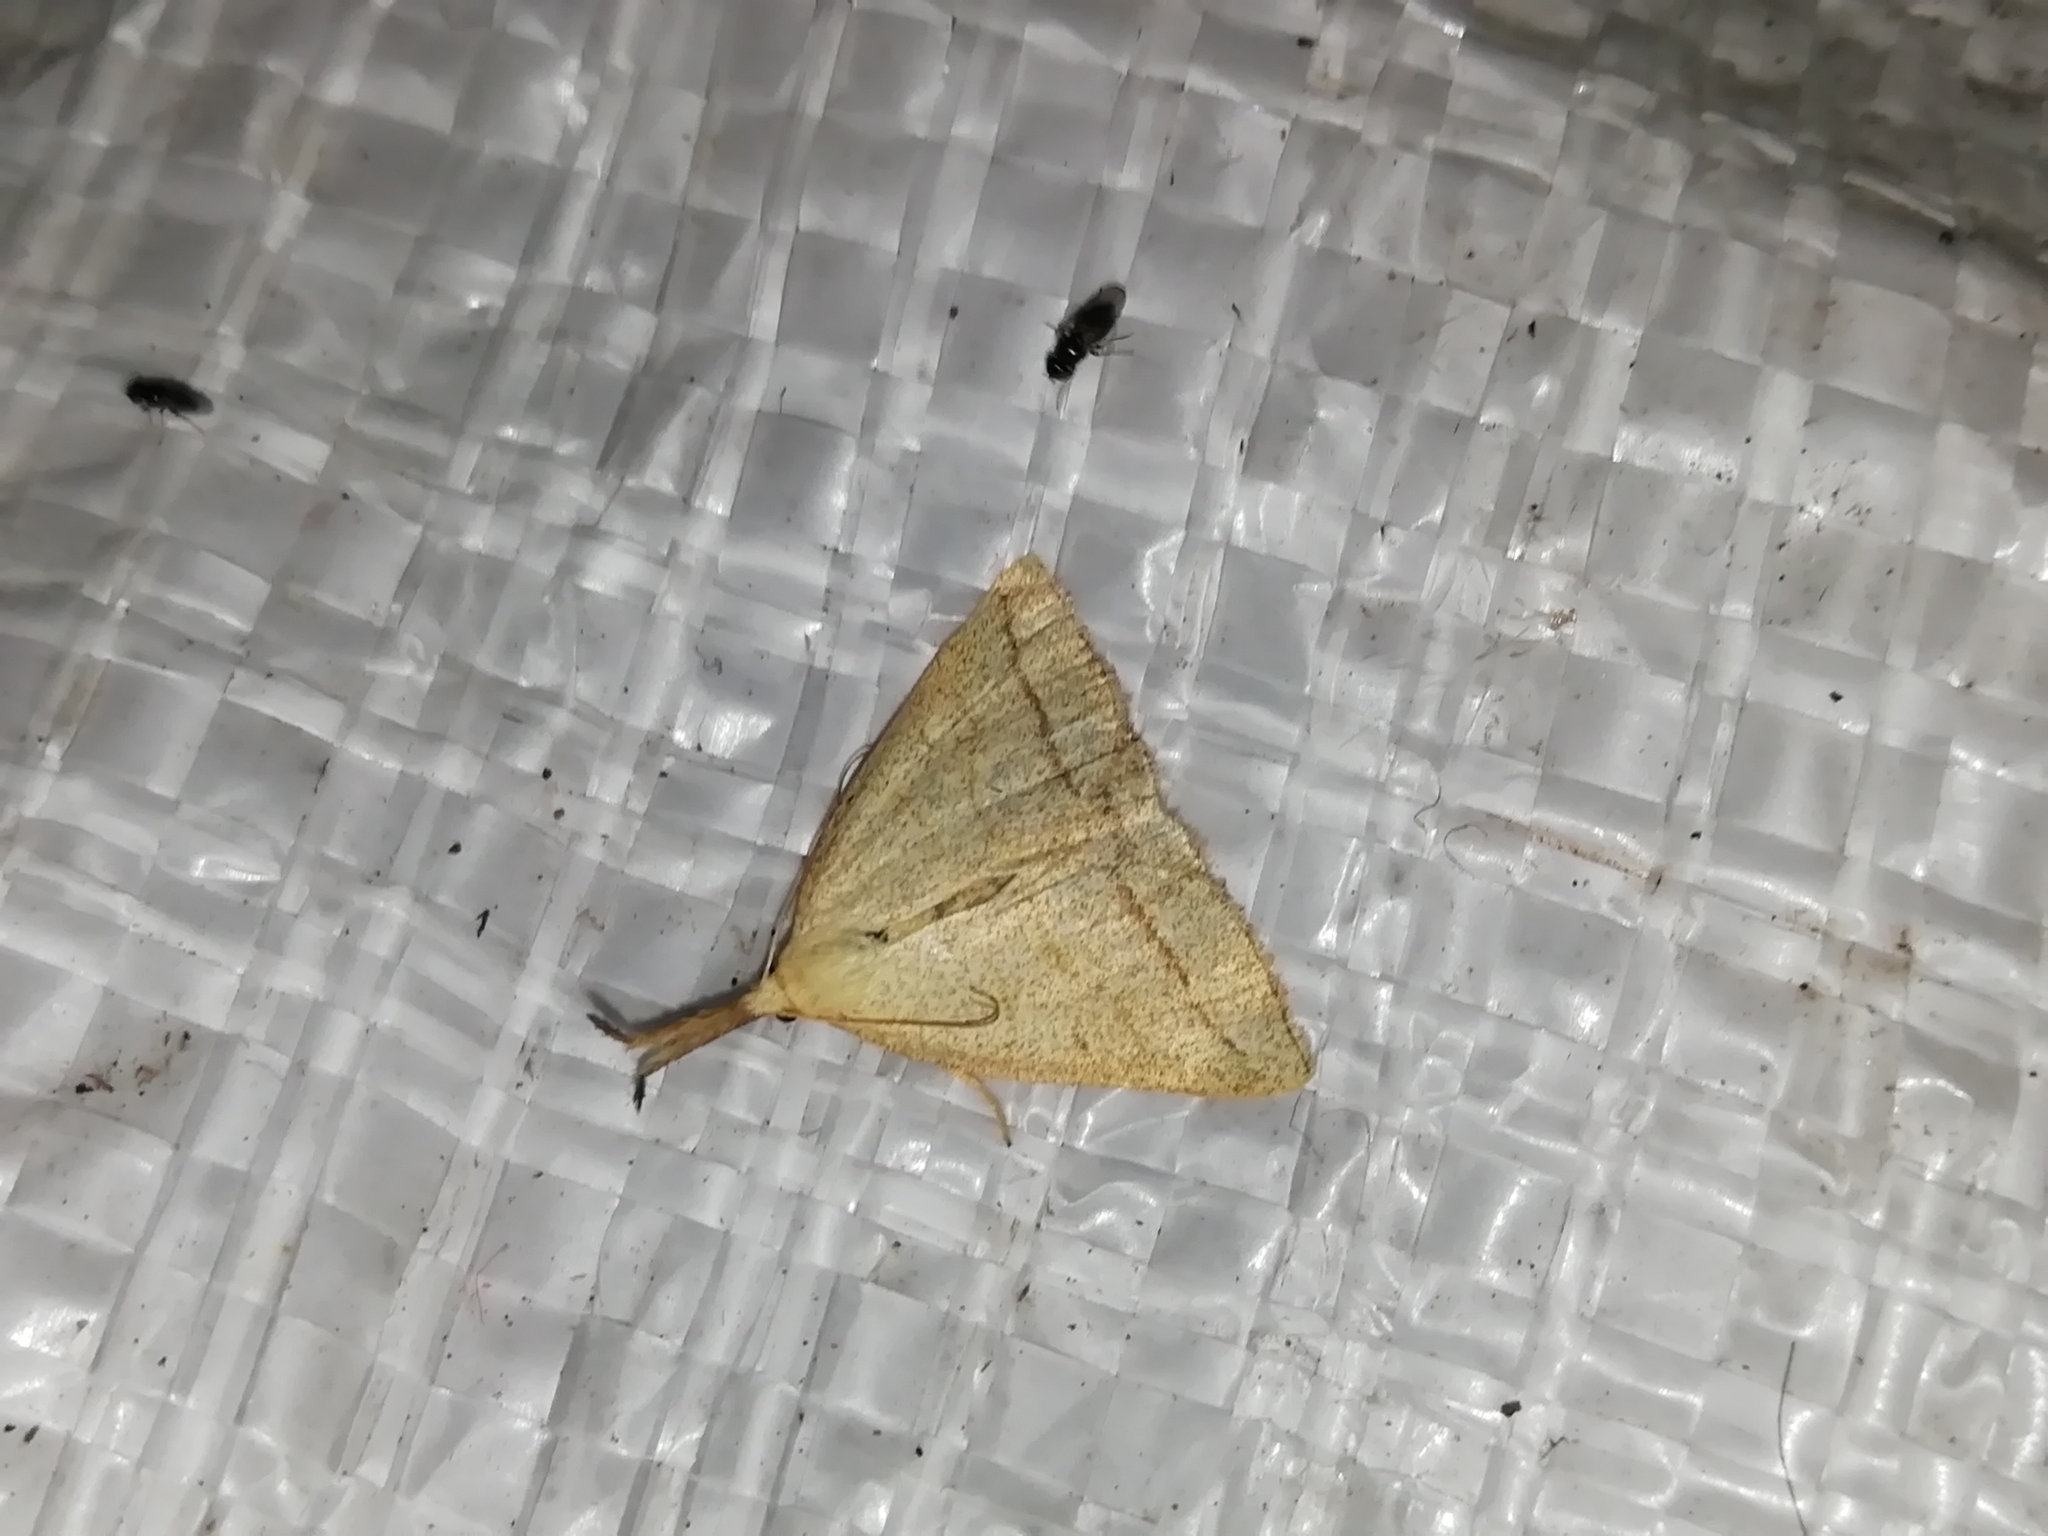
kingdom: Animalia
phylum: Arthropoda
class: Insecta
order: Lepidoptera
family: Erebidae
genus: Polypogon
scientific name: Polypogon tentacularia
